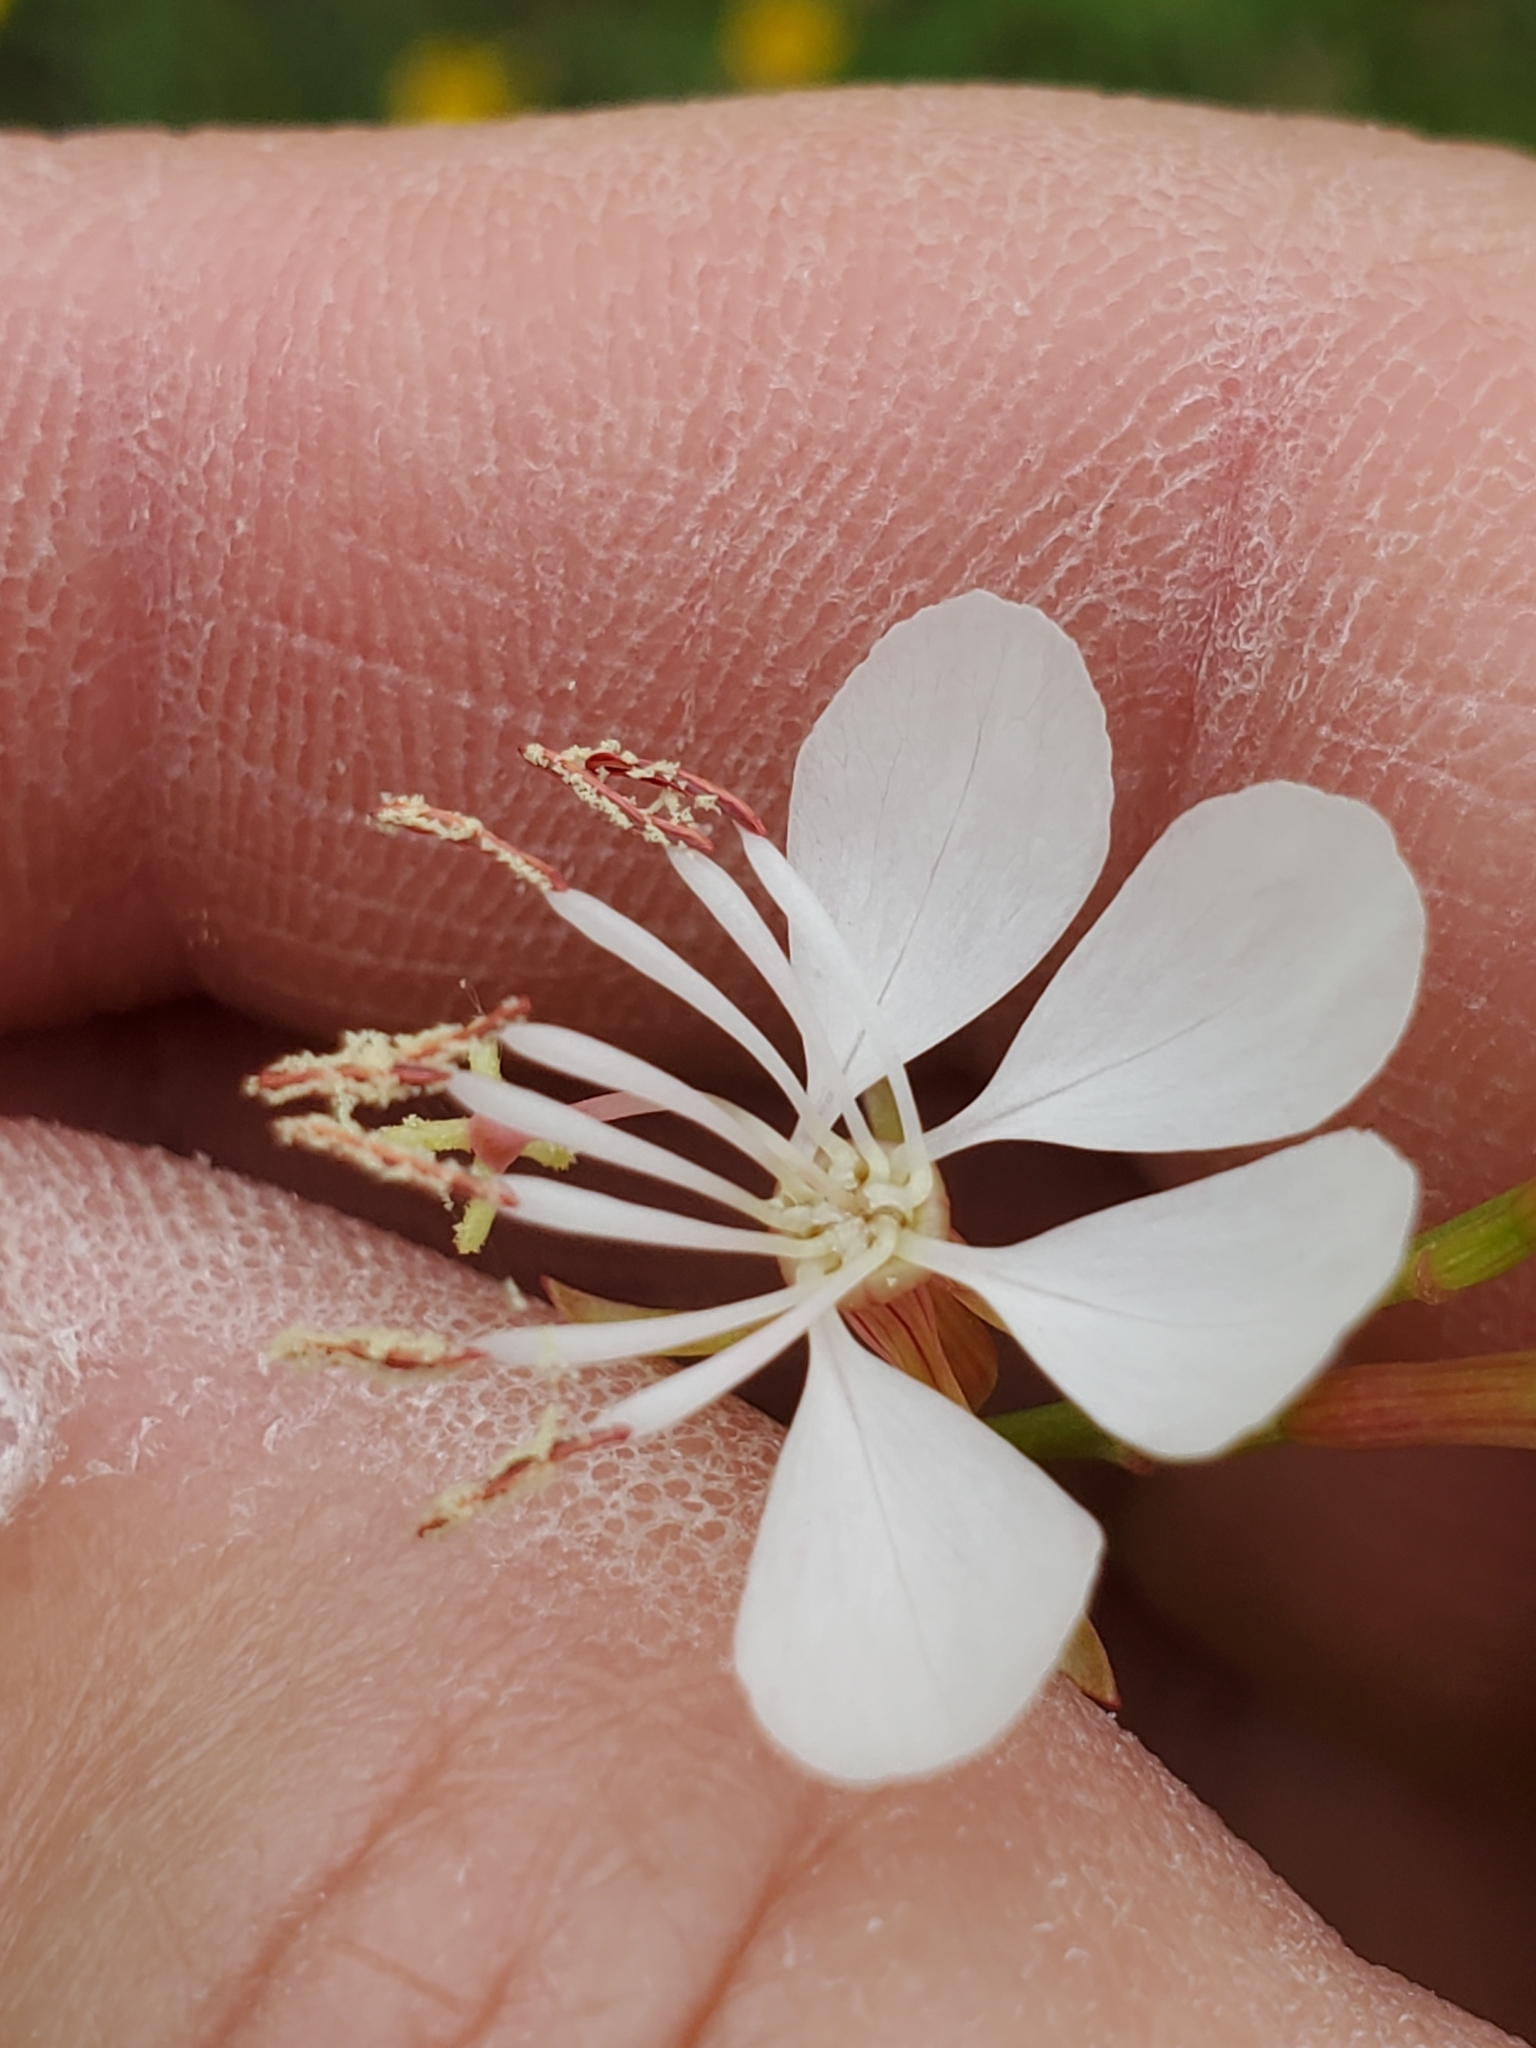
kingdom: Plantae
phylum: Tracheophyta
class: Magnoliopsida
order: Myrtales
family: Onagraceae
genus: Oenothera
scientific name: Oenothera suffulta
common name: Kisses
